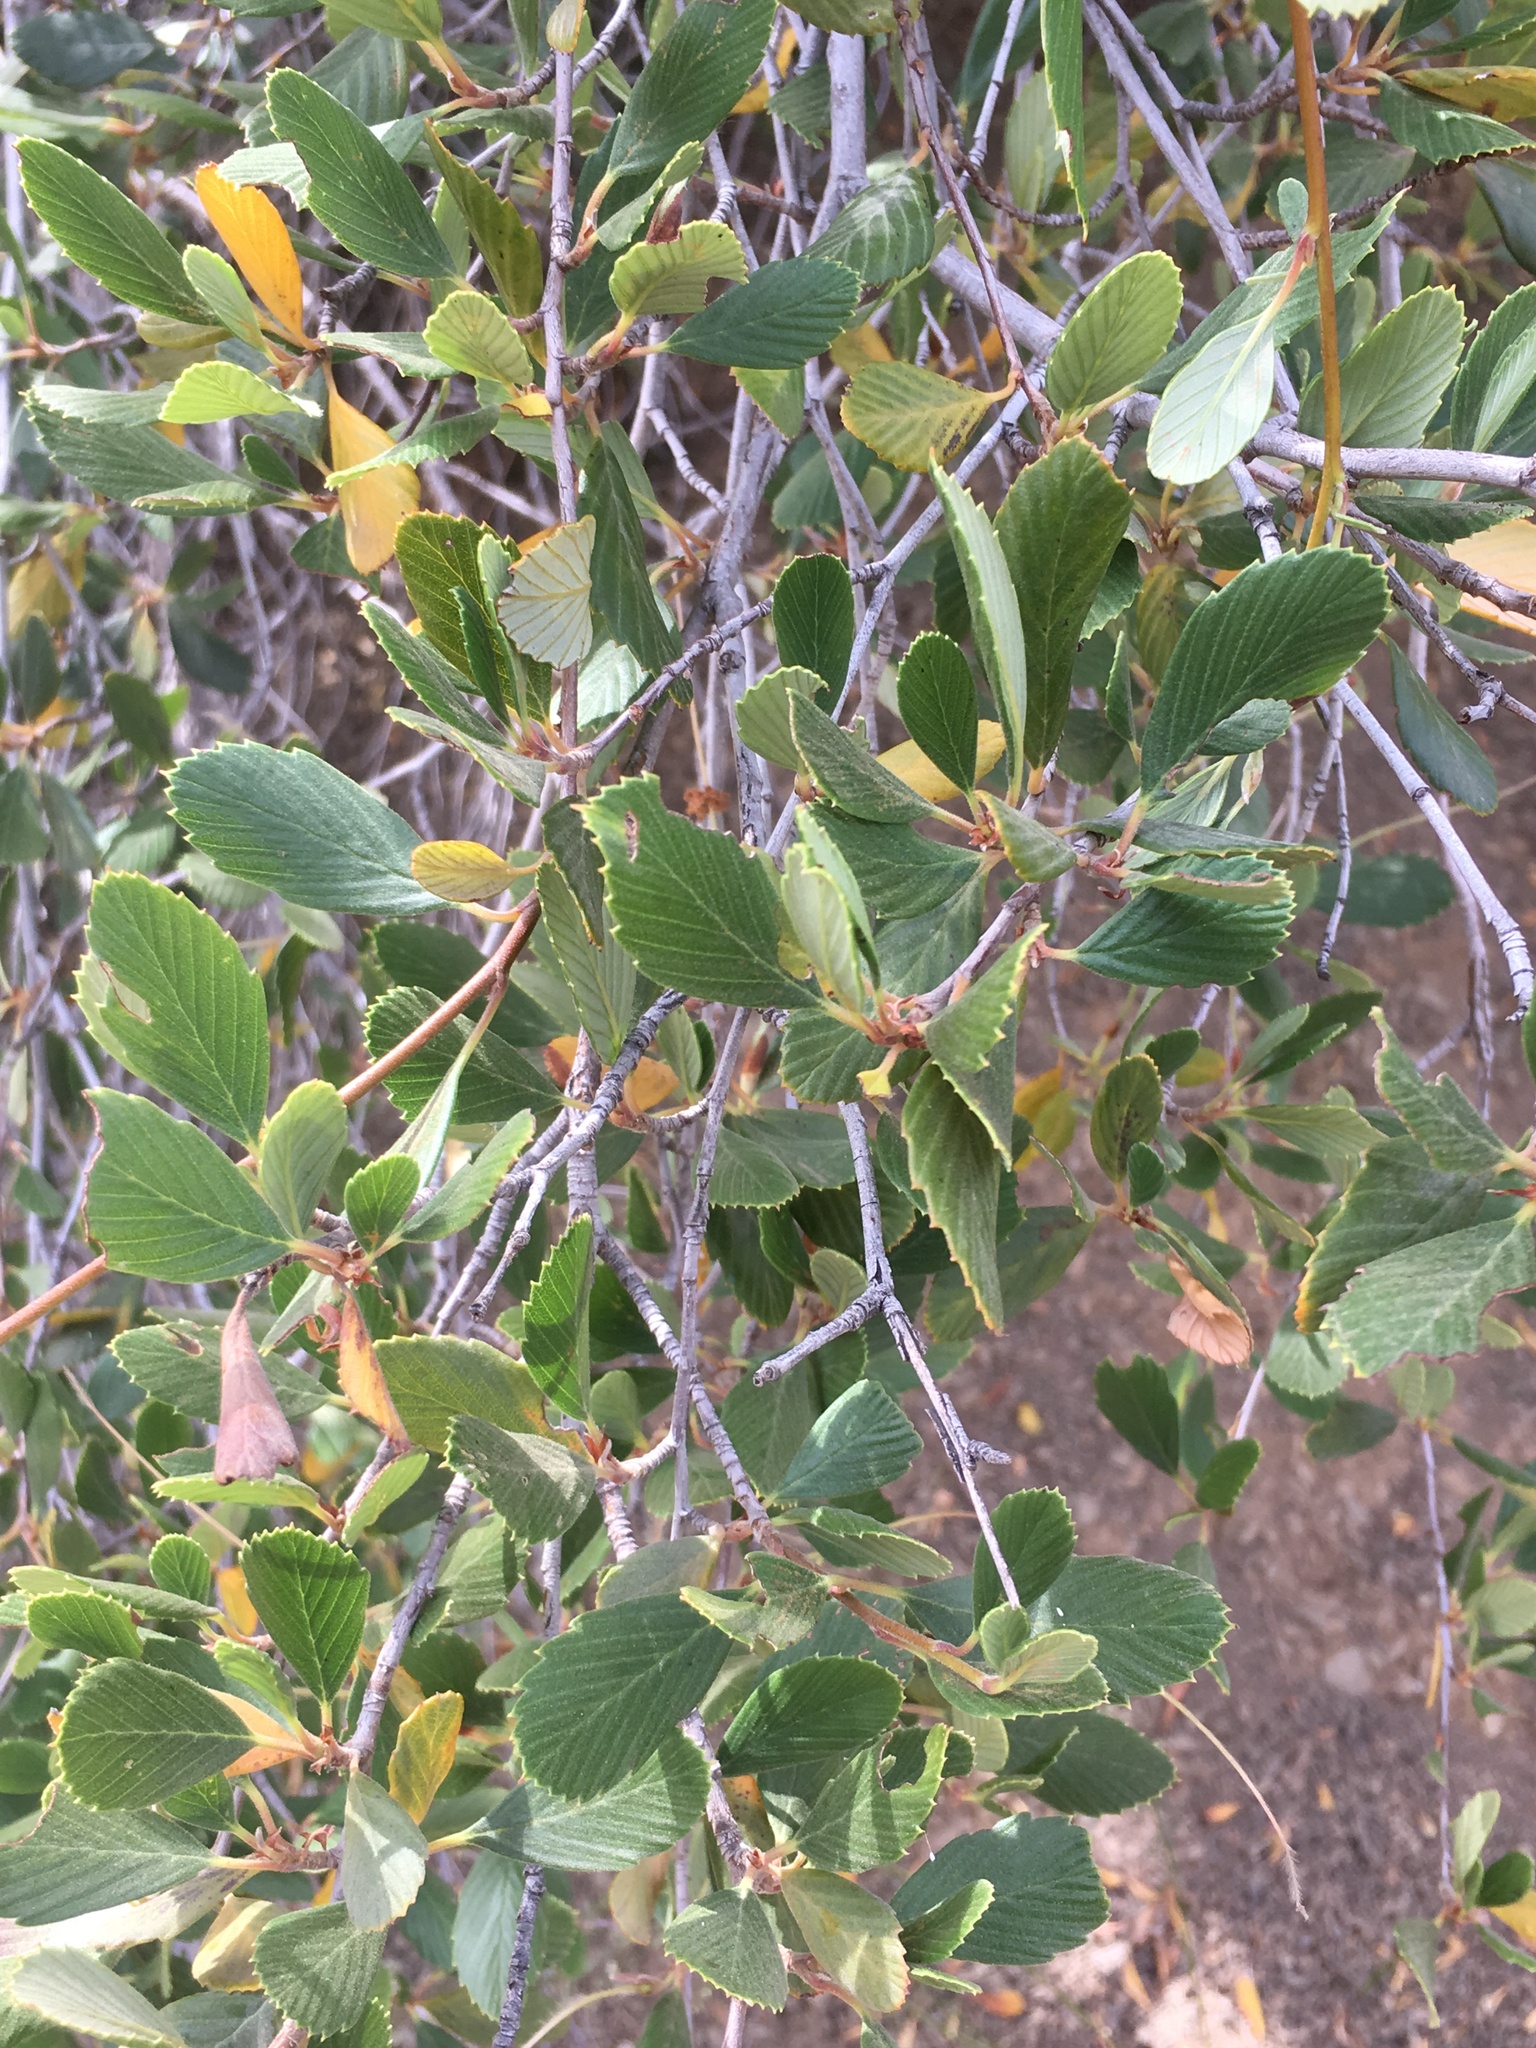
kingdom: Plantae
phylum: Tracheophyta
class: Magnoliopsida
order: Rosales
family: Rosaceae
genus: Cercocarpus
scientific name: Cercocarpus betuloides
